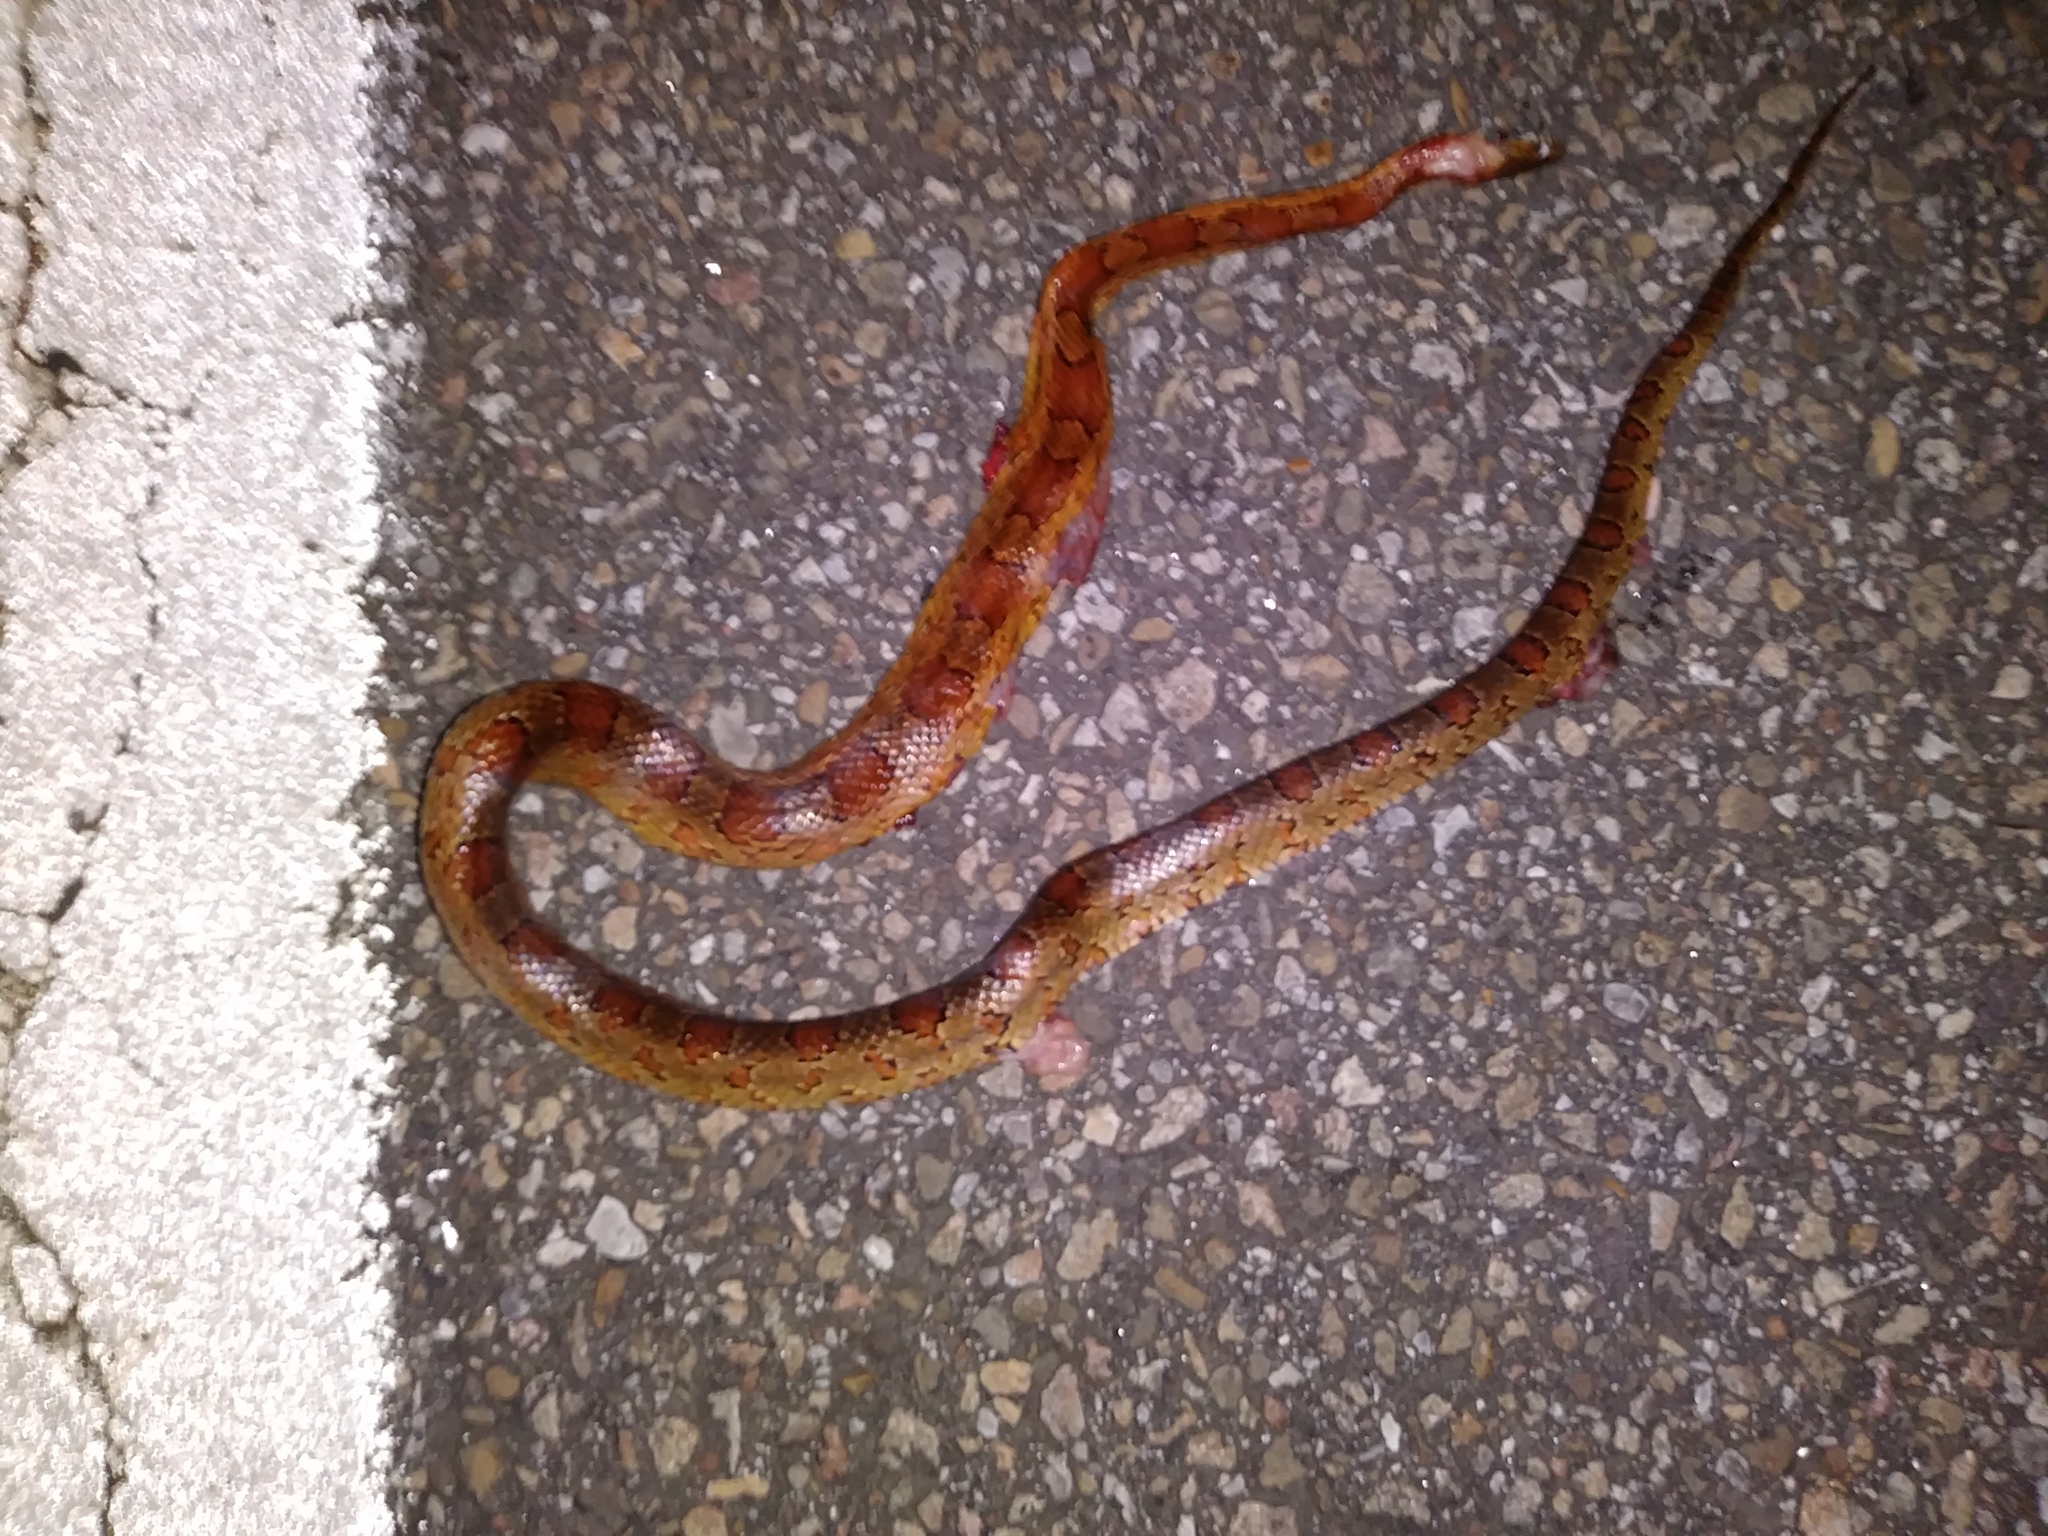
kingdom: Animalia
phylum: Chordata
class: Squamata
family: Colubridae
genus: Pantherophis
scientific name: Pantherophis guttatus
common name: Red cornsnake
